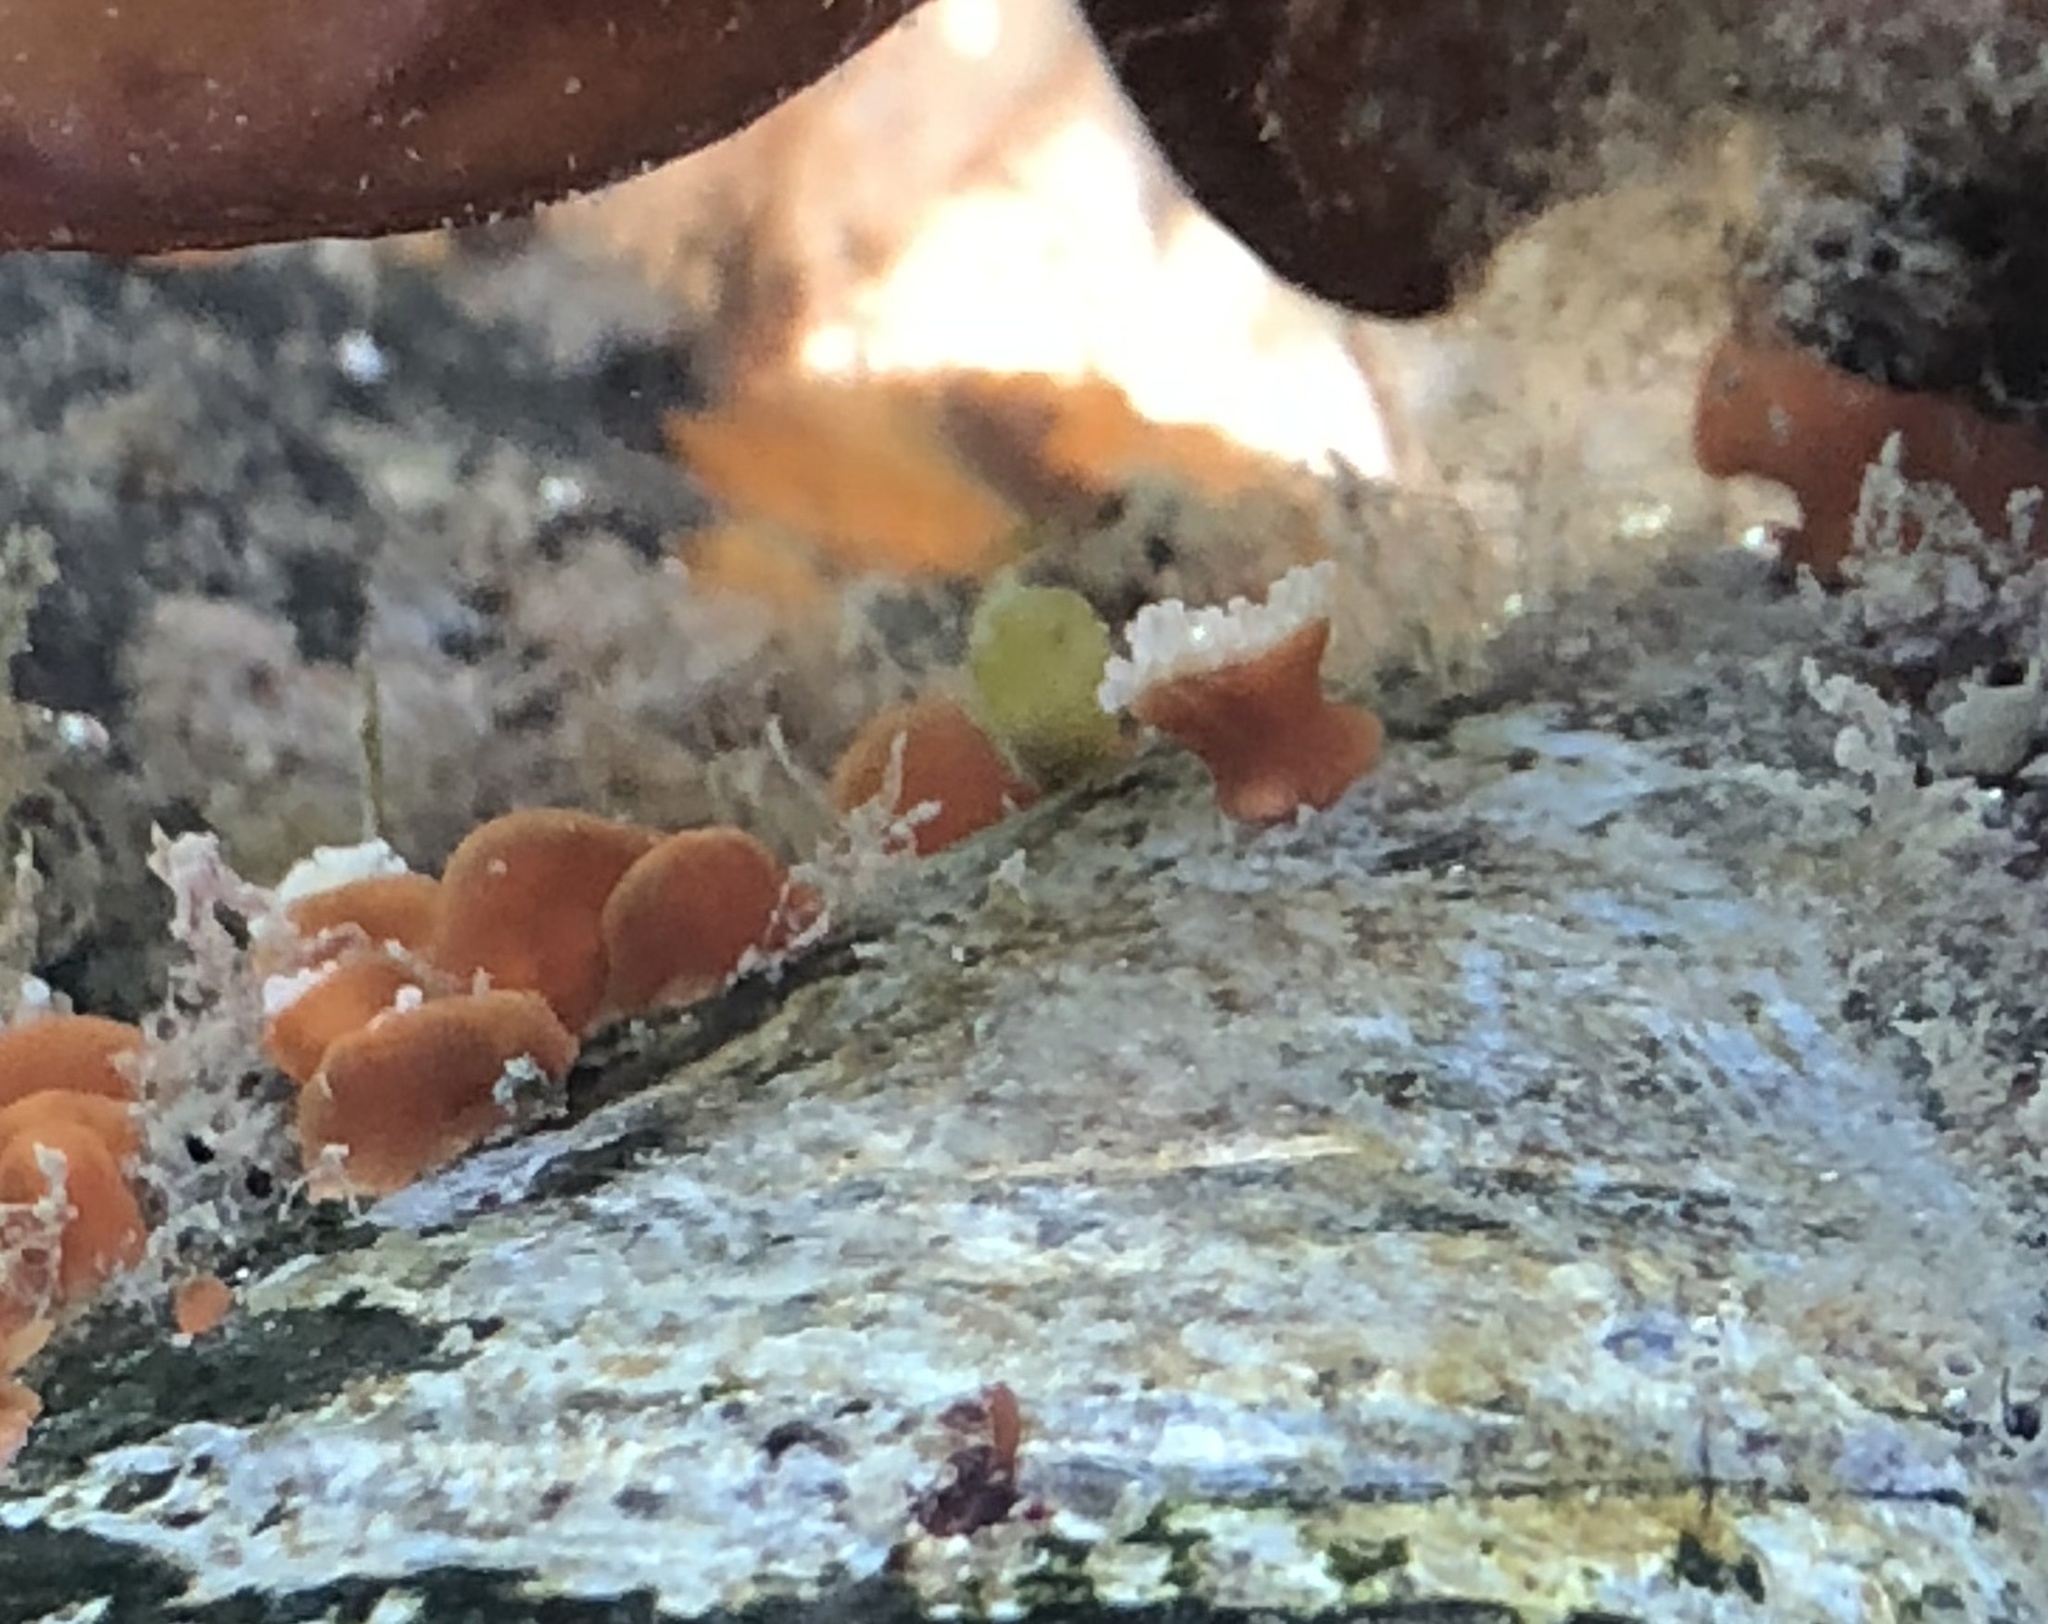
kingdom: Animalia
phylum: Cnidaria
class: Anthozoa
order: Corallimorpharia
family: Corallimorphidae
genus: Corynactis
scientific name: Corynactis californica
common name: Strawberry corallimorpharian
